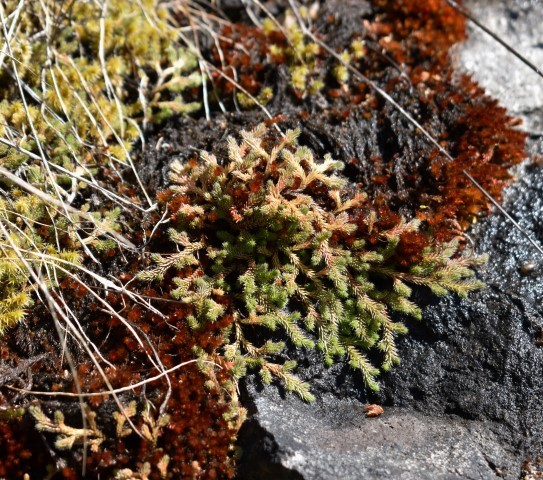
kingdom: Plantae
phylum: Tracheophyta
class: Lycopodiopsida
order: Selaginellales
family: Selaginellaceae
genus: Selaginella
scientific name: Selaginella wallacei
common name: Wallace's selaginella
